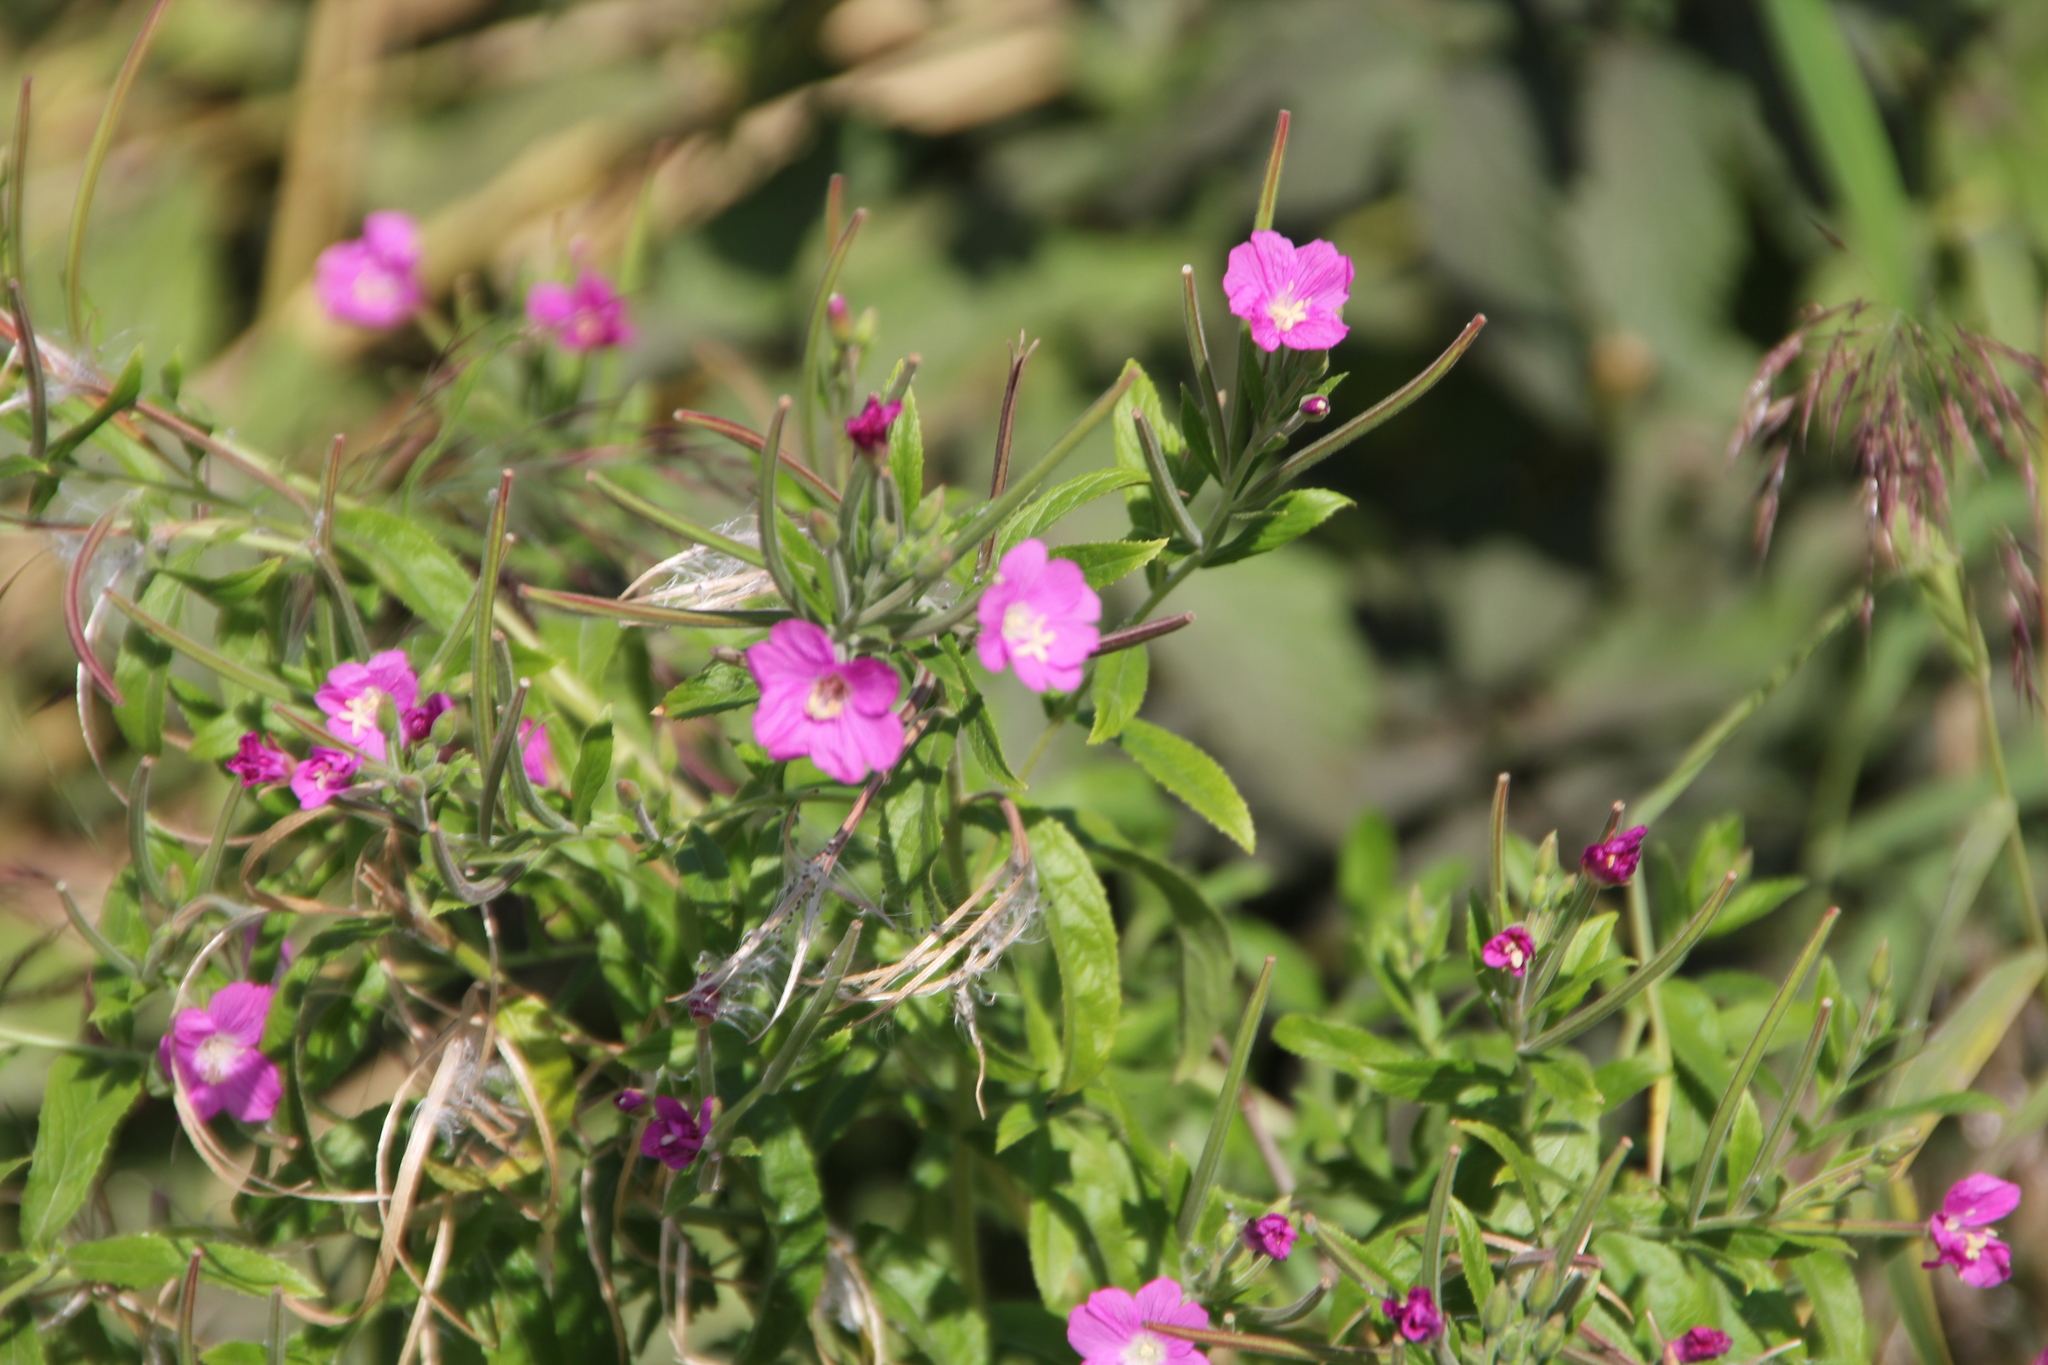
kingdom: Plantae
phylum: Tracheophyta
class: Magnoliopsida
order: Myrtales
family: Onagraceae
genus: Epilobium
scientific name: Epilobium hirsutum
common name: Great willowherb
